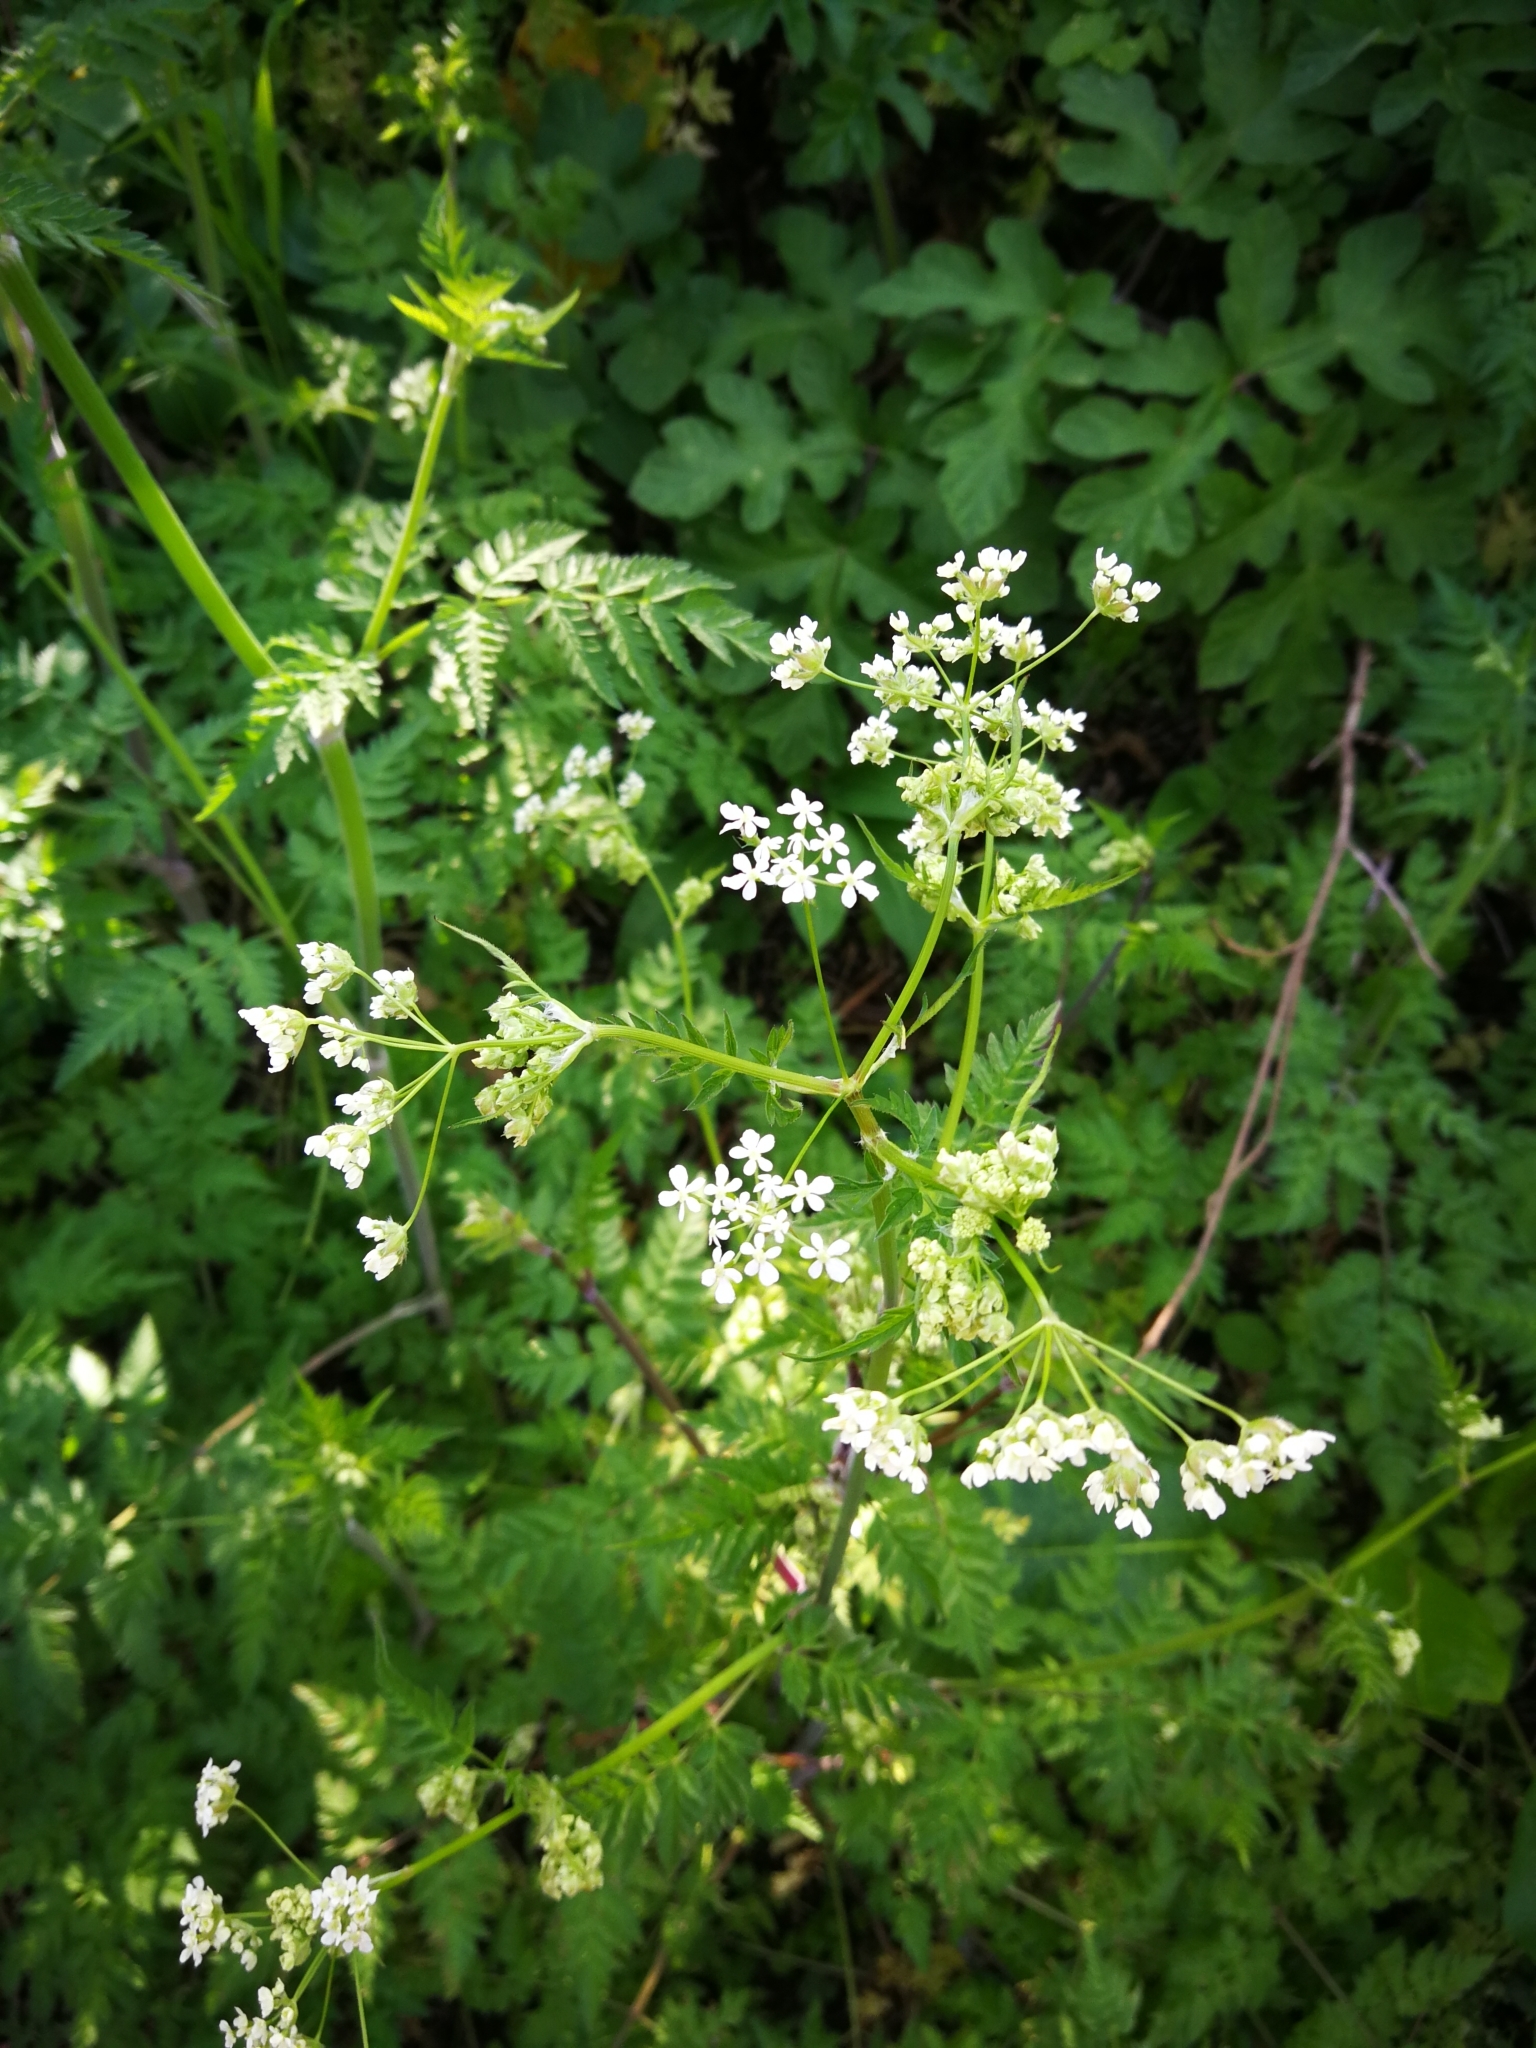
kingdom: Plantae
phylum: Tracheophyta
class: Magnoliopsida
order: Apiales
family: Apiaceae
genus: Anthriscus
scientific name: Anthriscus sylvestris
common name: Cow parsley
